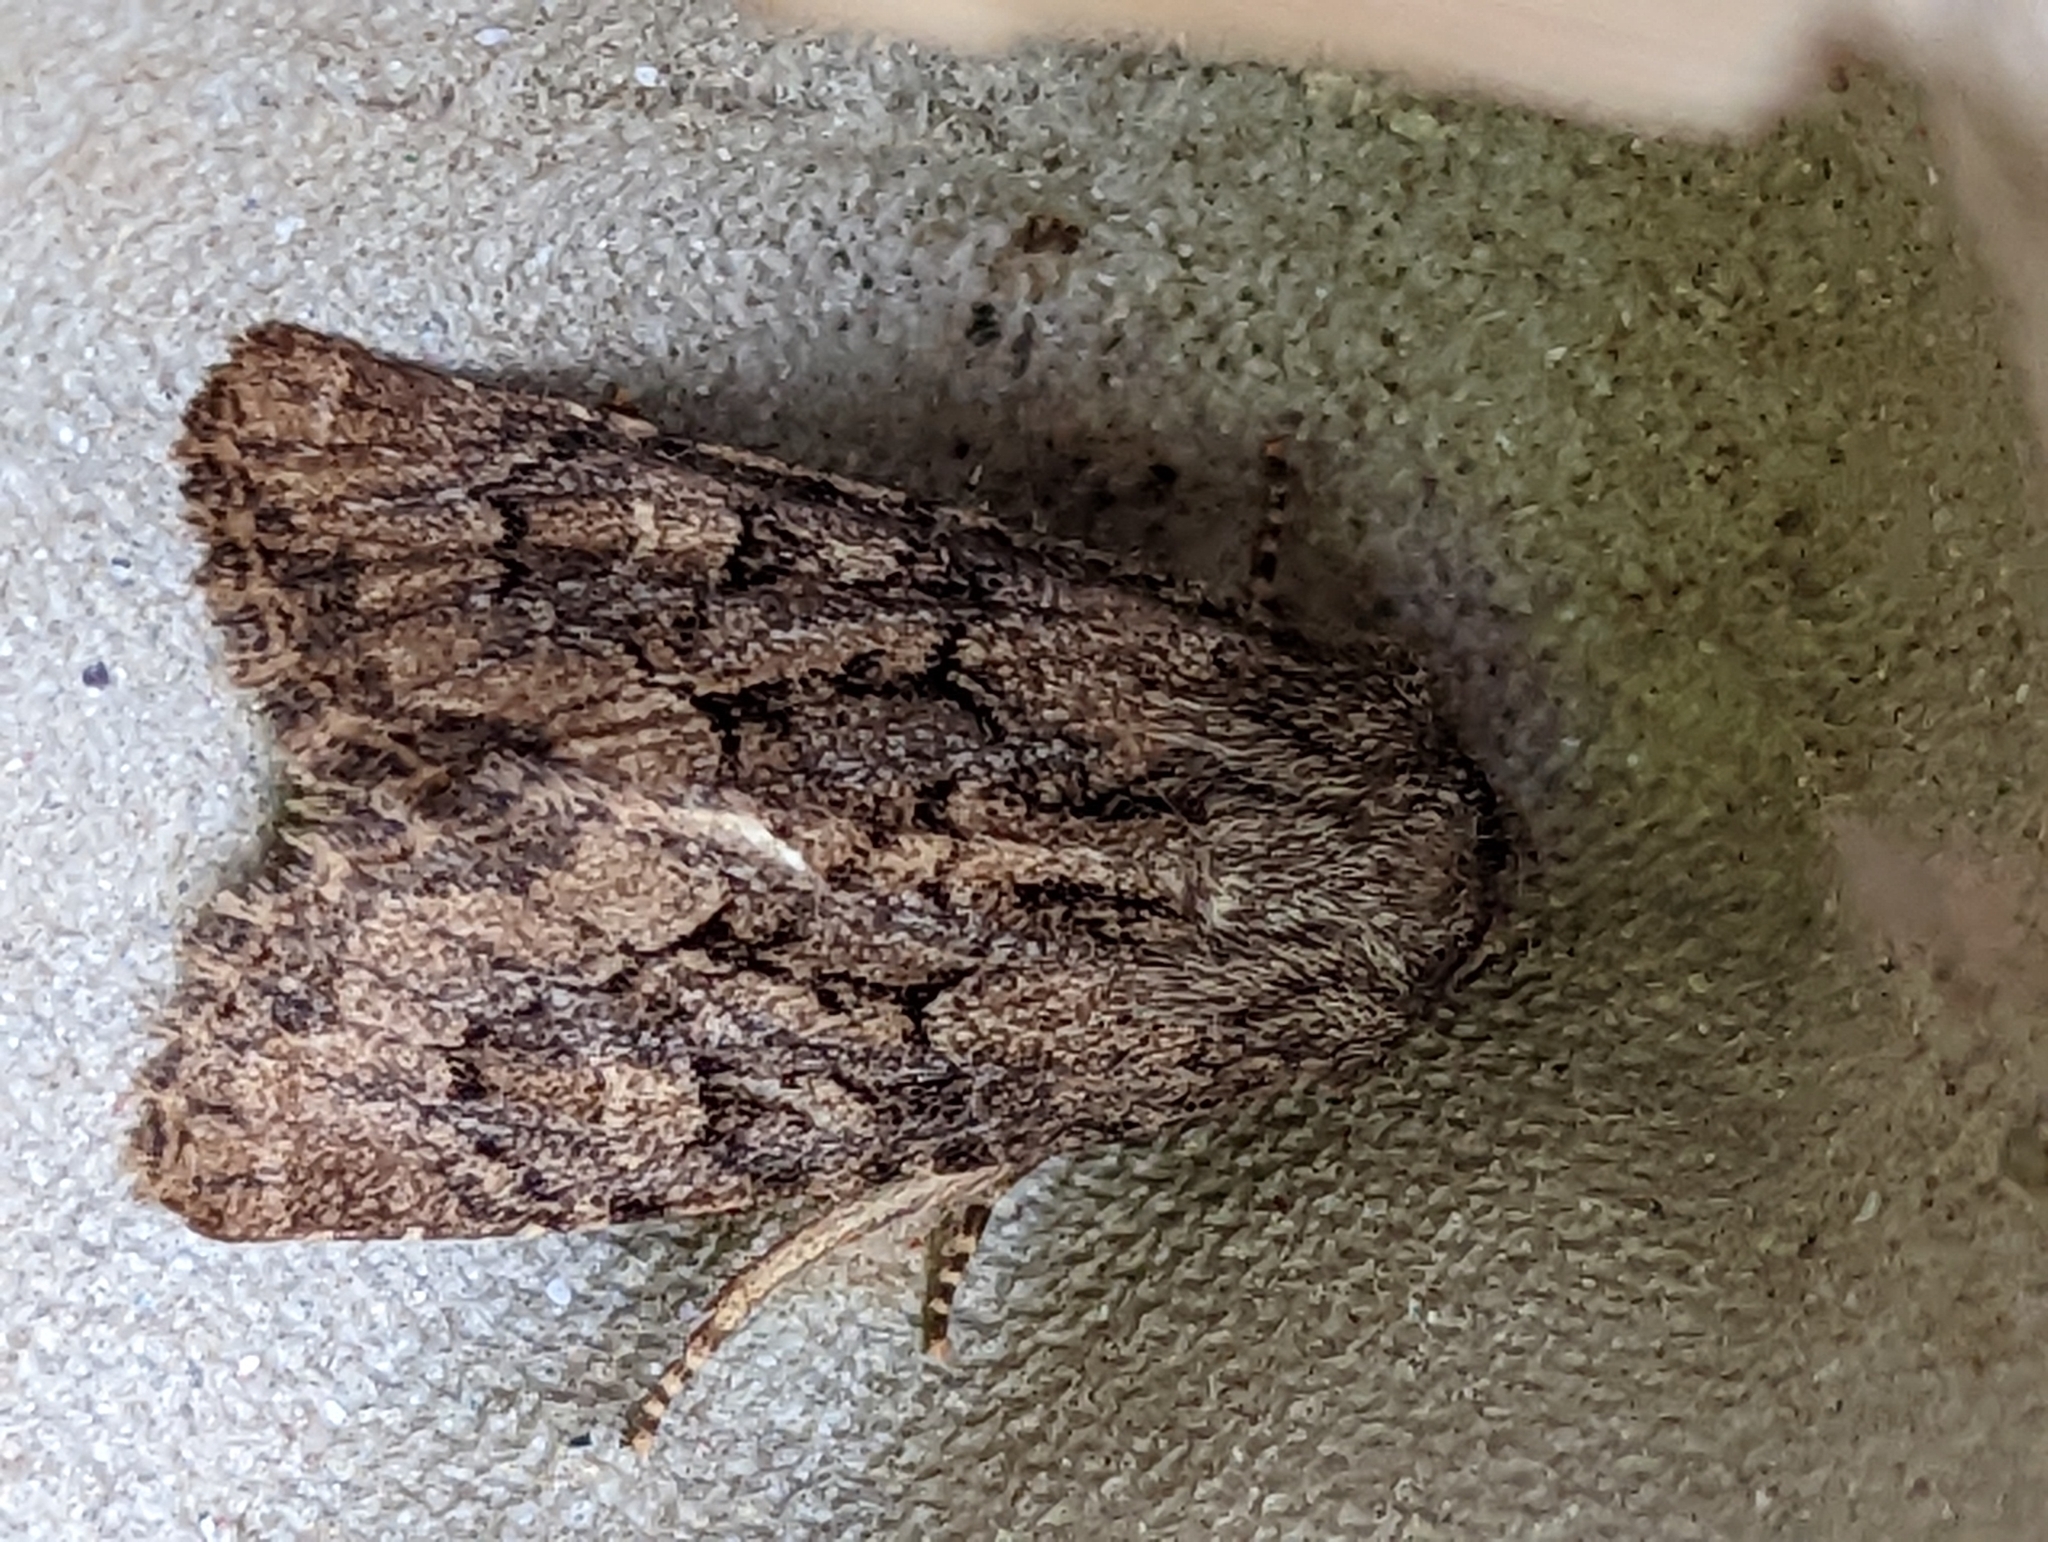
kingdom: Animalia
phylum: Arthropoda
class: Insecta
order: Lepidoptera
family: Noctuidae
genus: Luperina
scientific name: Luperina testacea
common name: Flounced rustic
